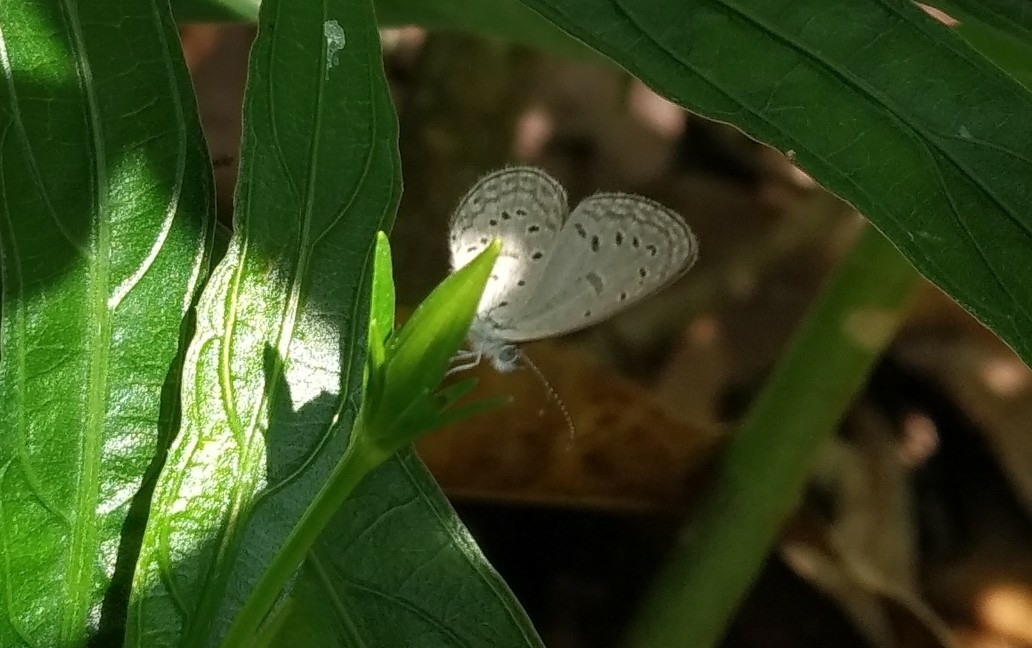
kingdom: Animalia
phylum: Arthropoda
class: Insecta
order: Lepidoptera
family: Lycaenidae
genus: Zizula
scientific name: Zizula hylax
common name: Gaika blue
